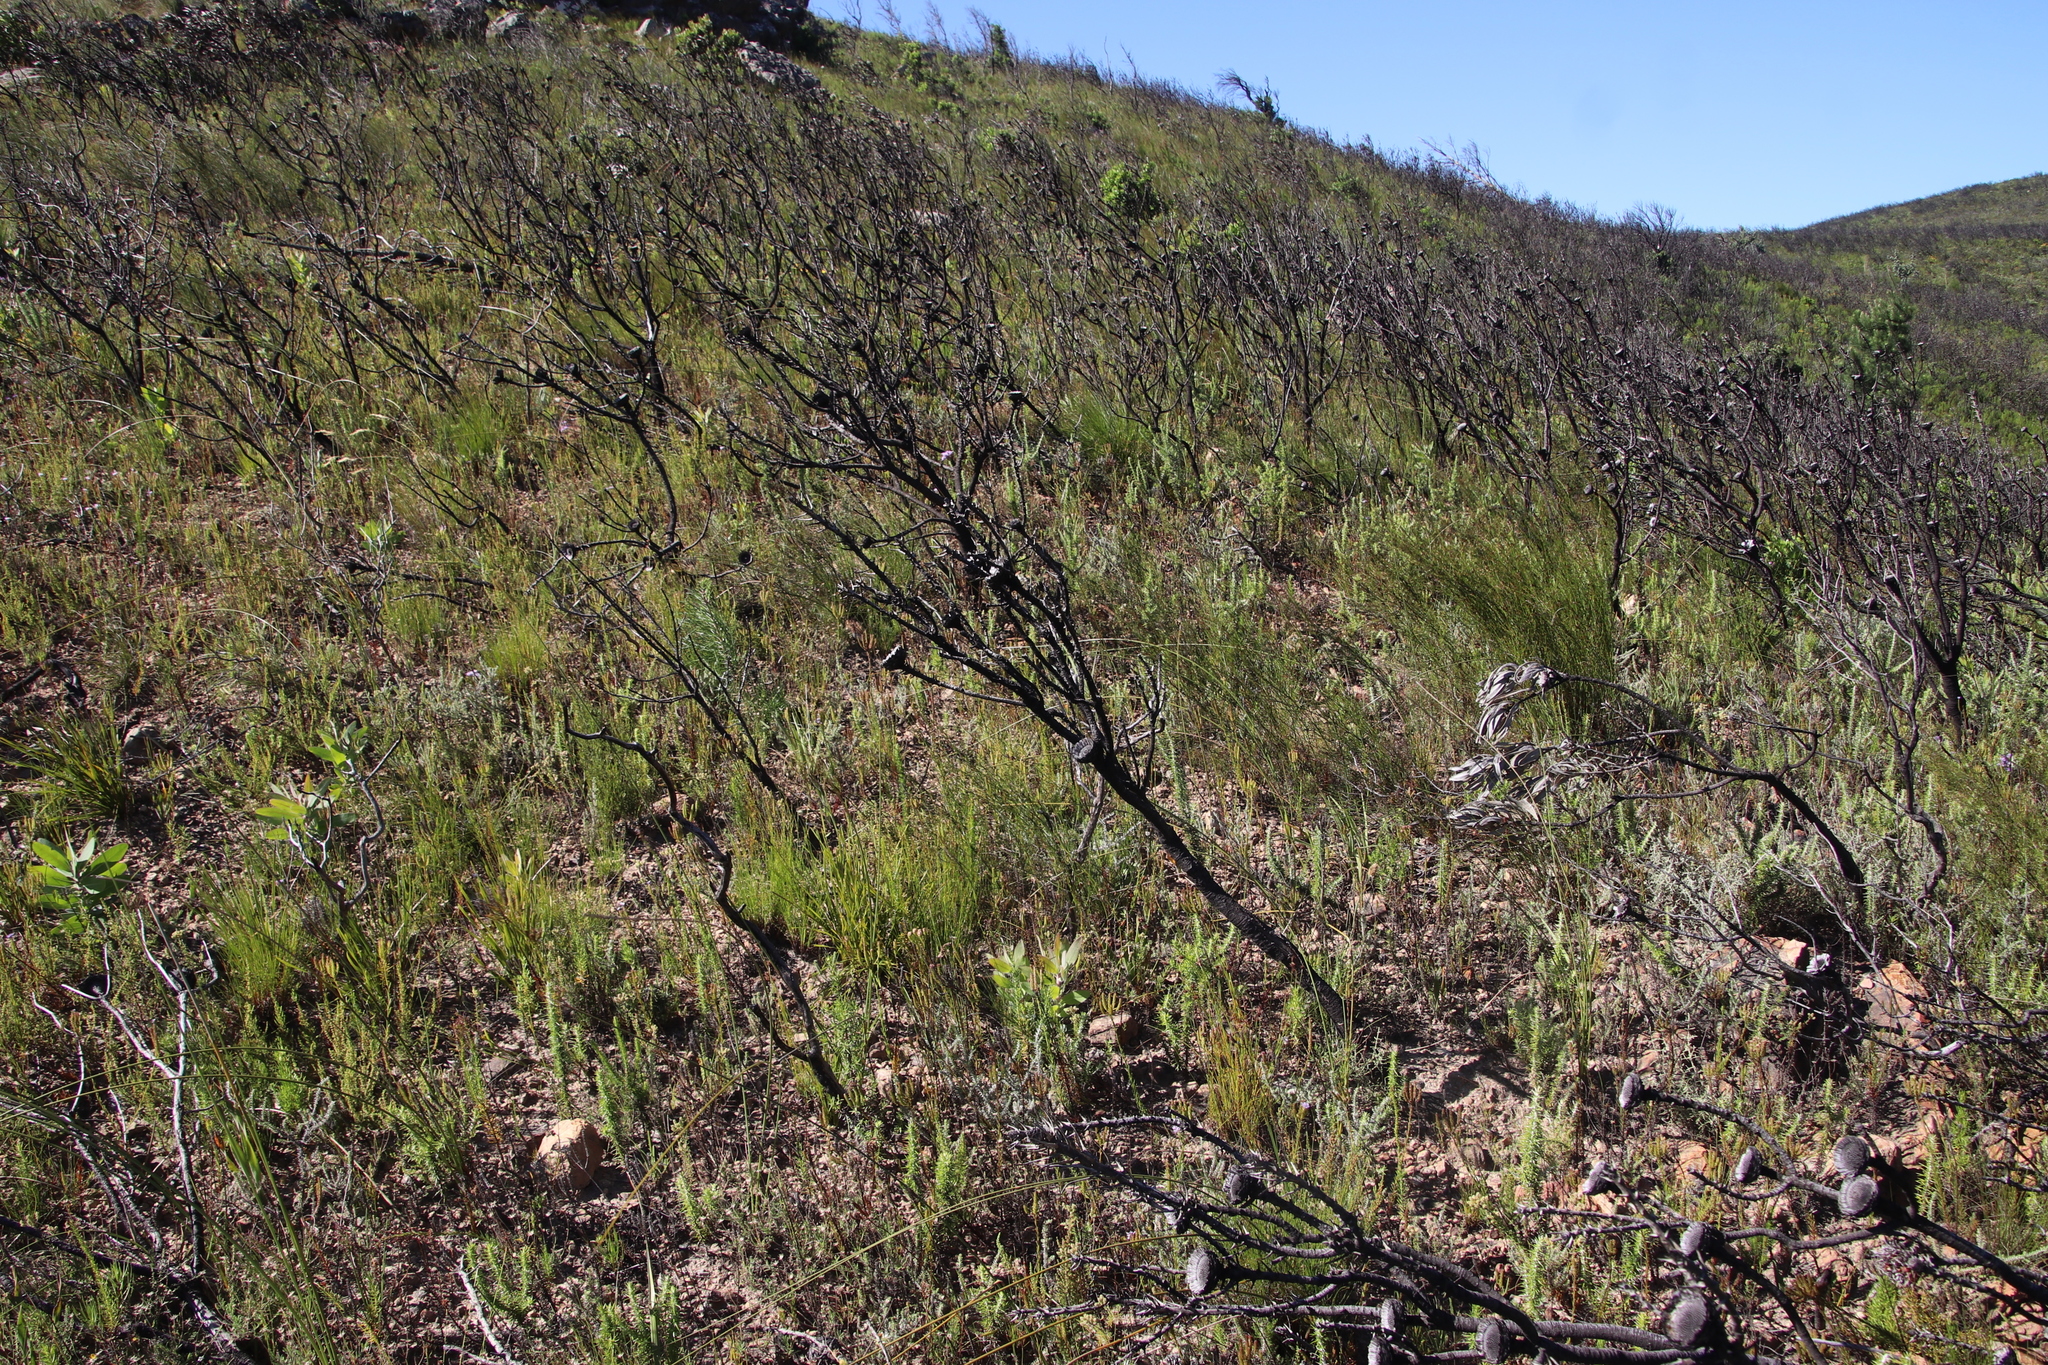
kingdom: Plantae
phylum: Tracheophyta
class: Magnoliopsida
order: Proteales
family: Proteaceae
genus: Protea
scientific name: Protea laurifolia
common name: Grey-leaf sugarbsh
